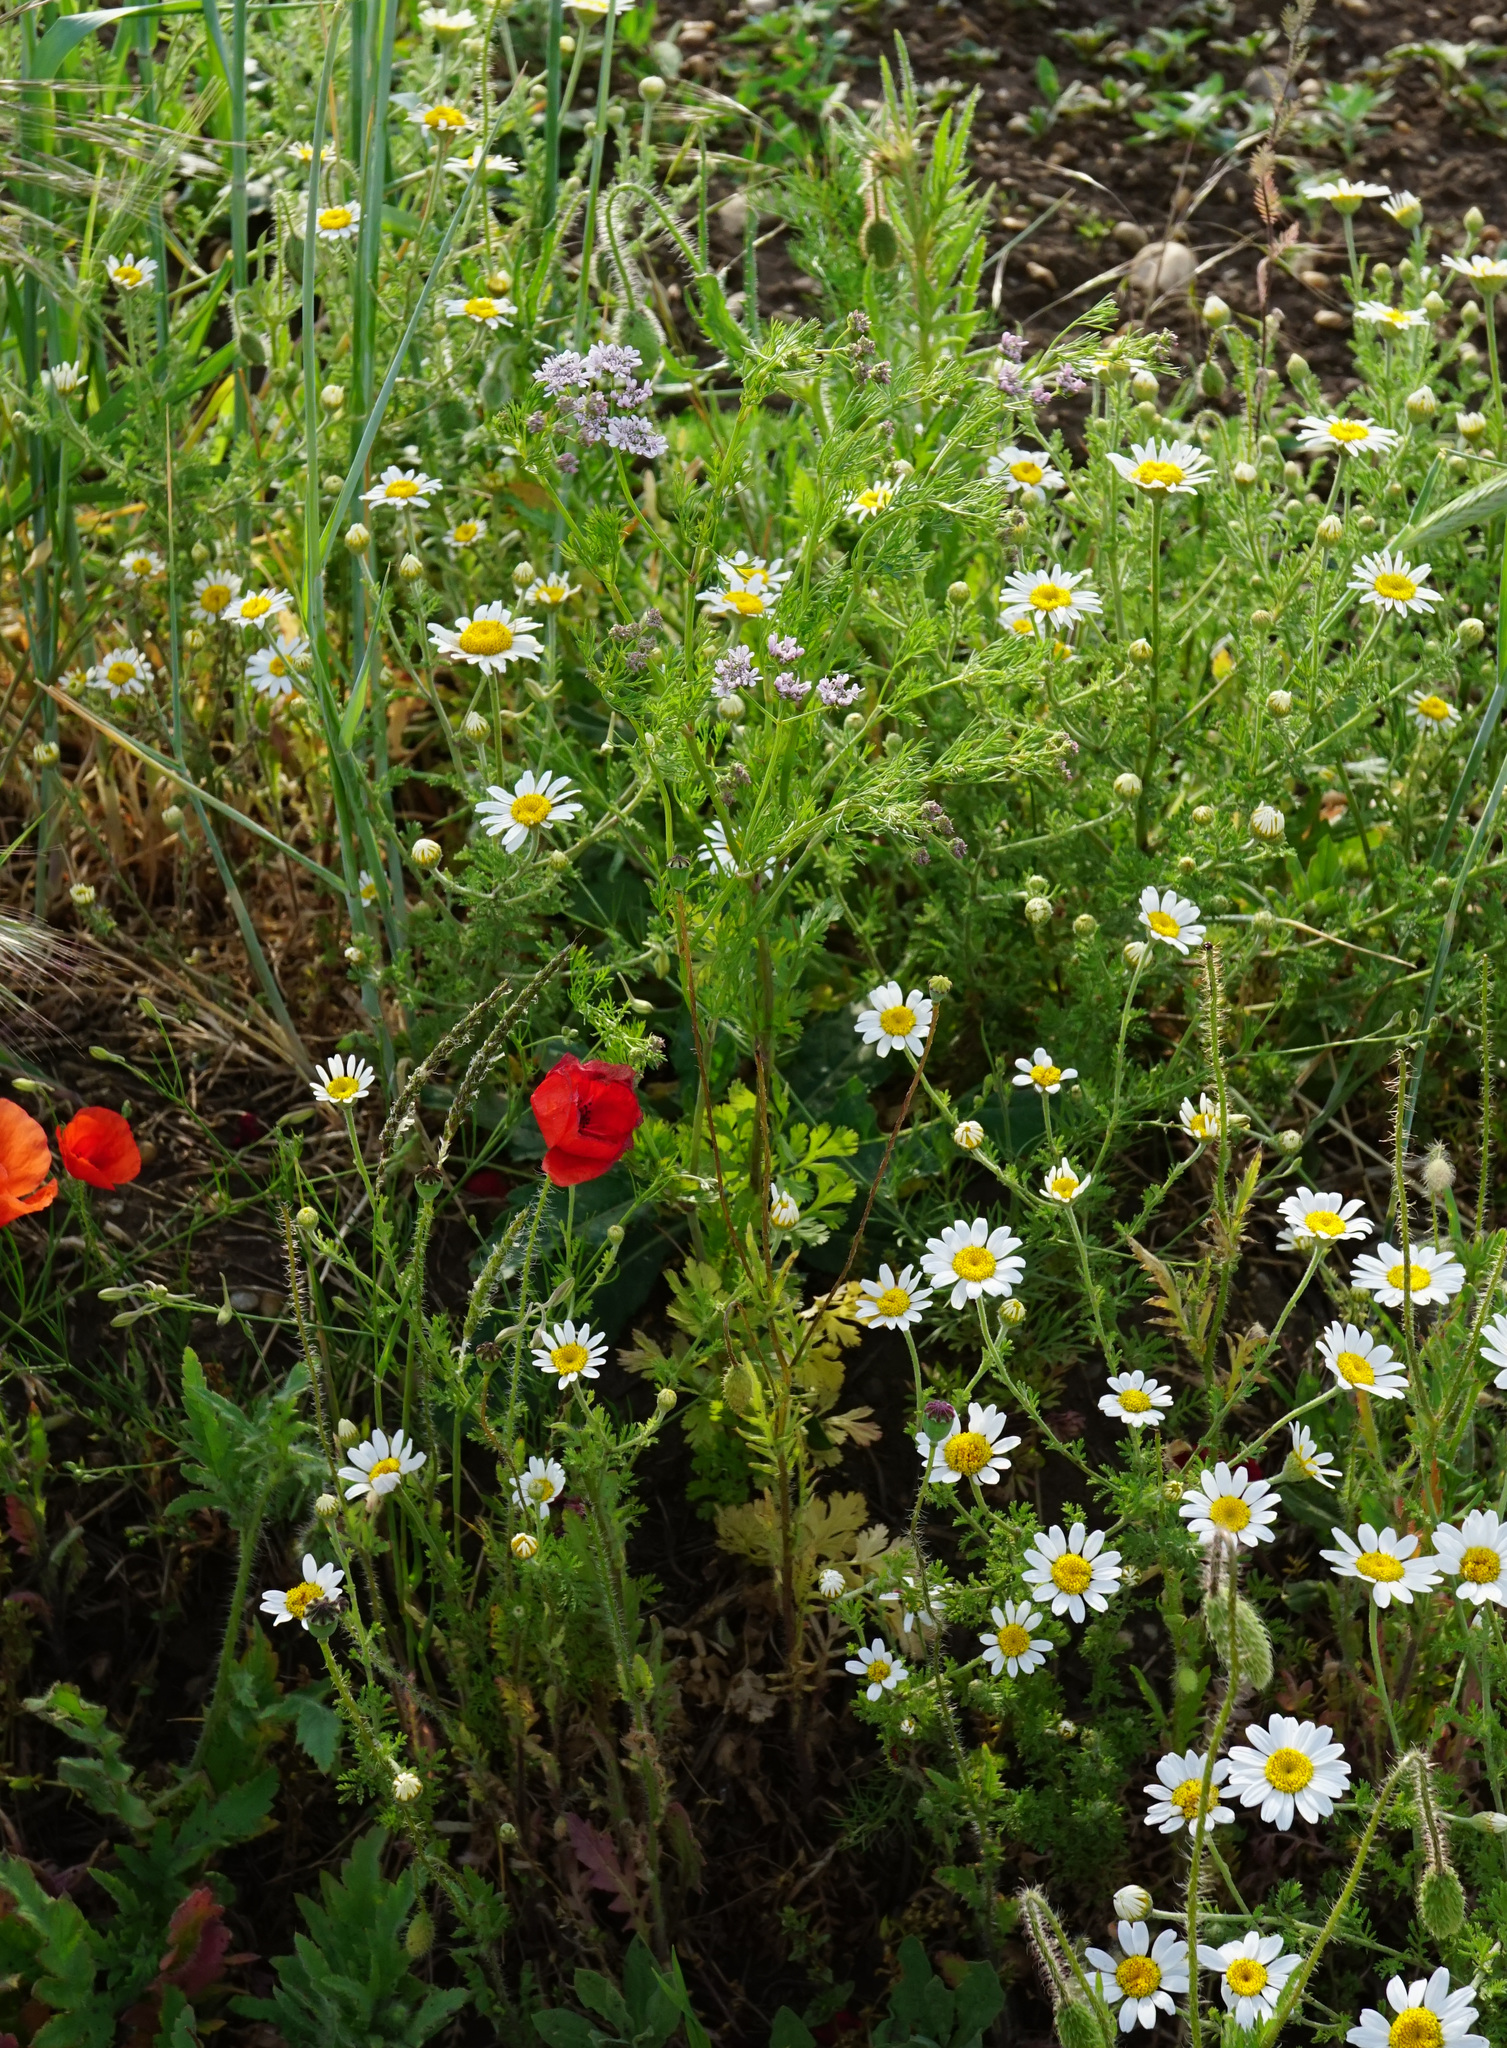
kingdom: Plantae
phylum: Tracheophyta
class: Magnoliopsida
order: Apiales
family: Apiaceae
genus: Coriandrum
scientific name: Coriandrum sativum
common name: Coriander
